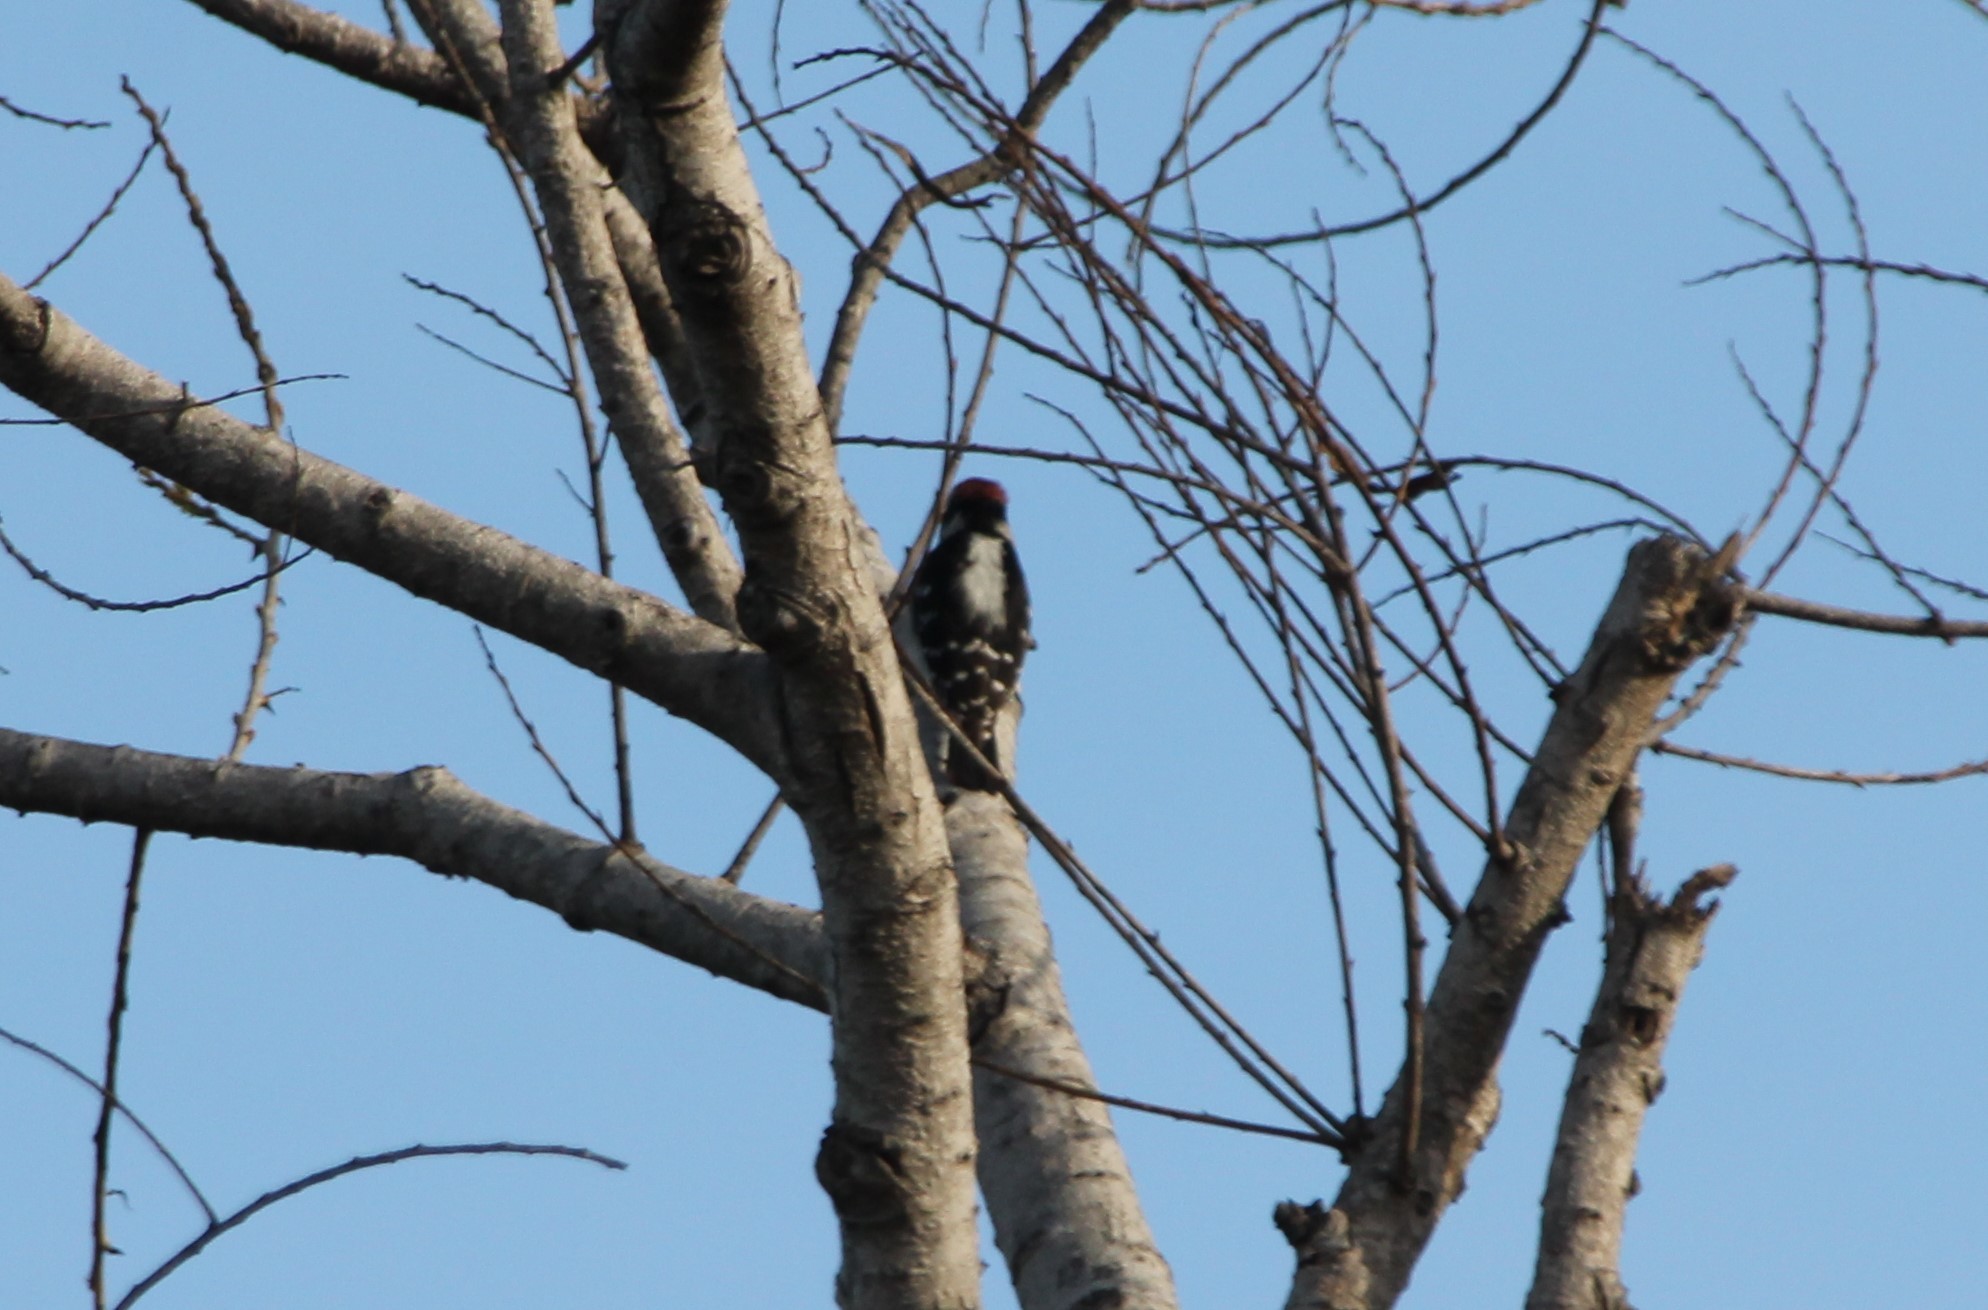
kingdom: Animalia
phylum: Chordata
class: Aves
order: Piciformes
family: Picidae
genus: Dryobates
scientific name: Dryobates pubescens
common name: Downy woodpecker
